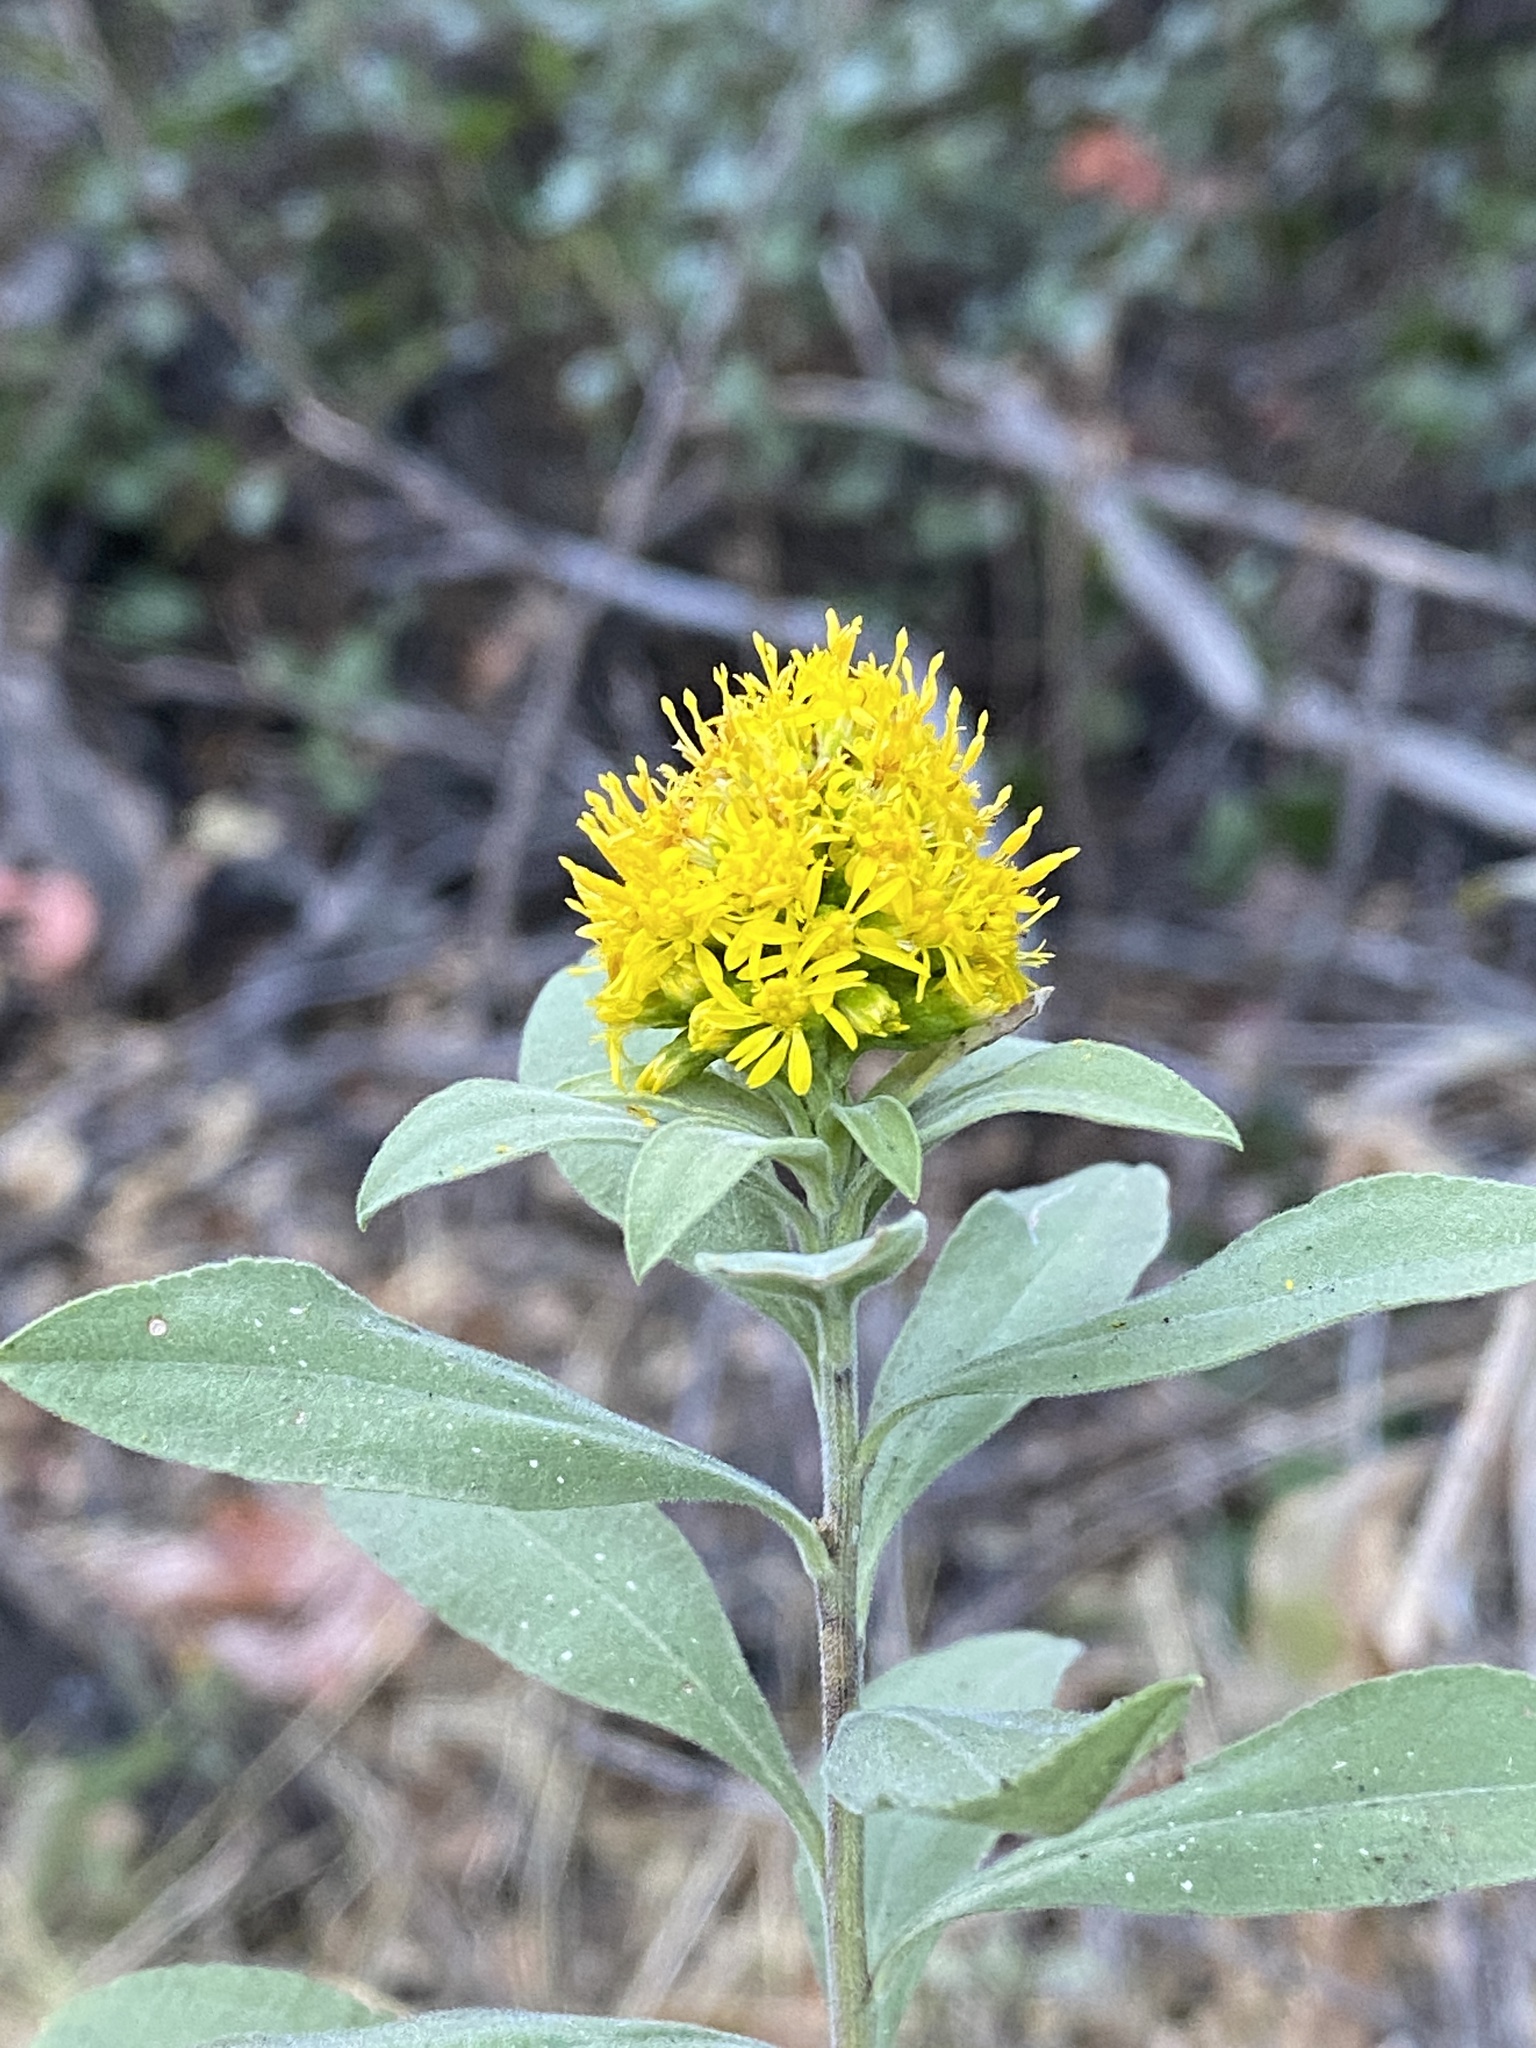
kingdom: Plantae
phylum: Tracheophyta
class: Magnoliopsida
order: Asterales
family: Asteraceae
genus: Solidago
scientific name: Solidago velutina
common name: Three-nerve goldenrod
